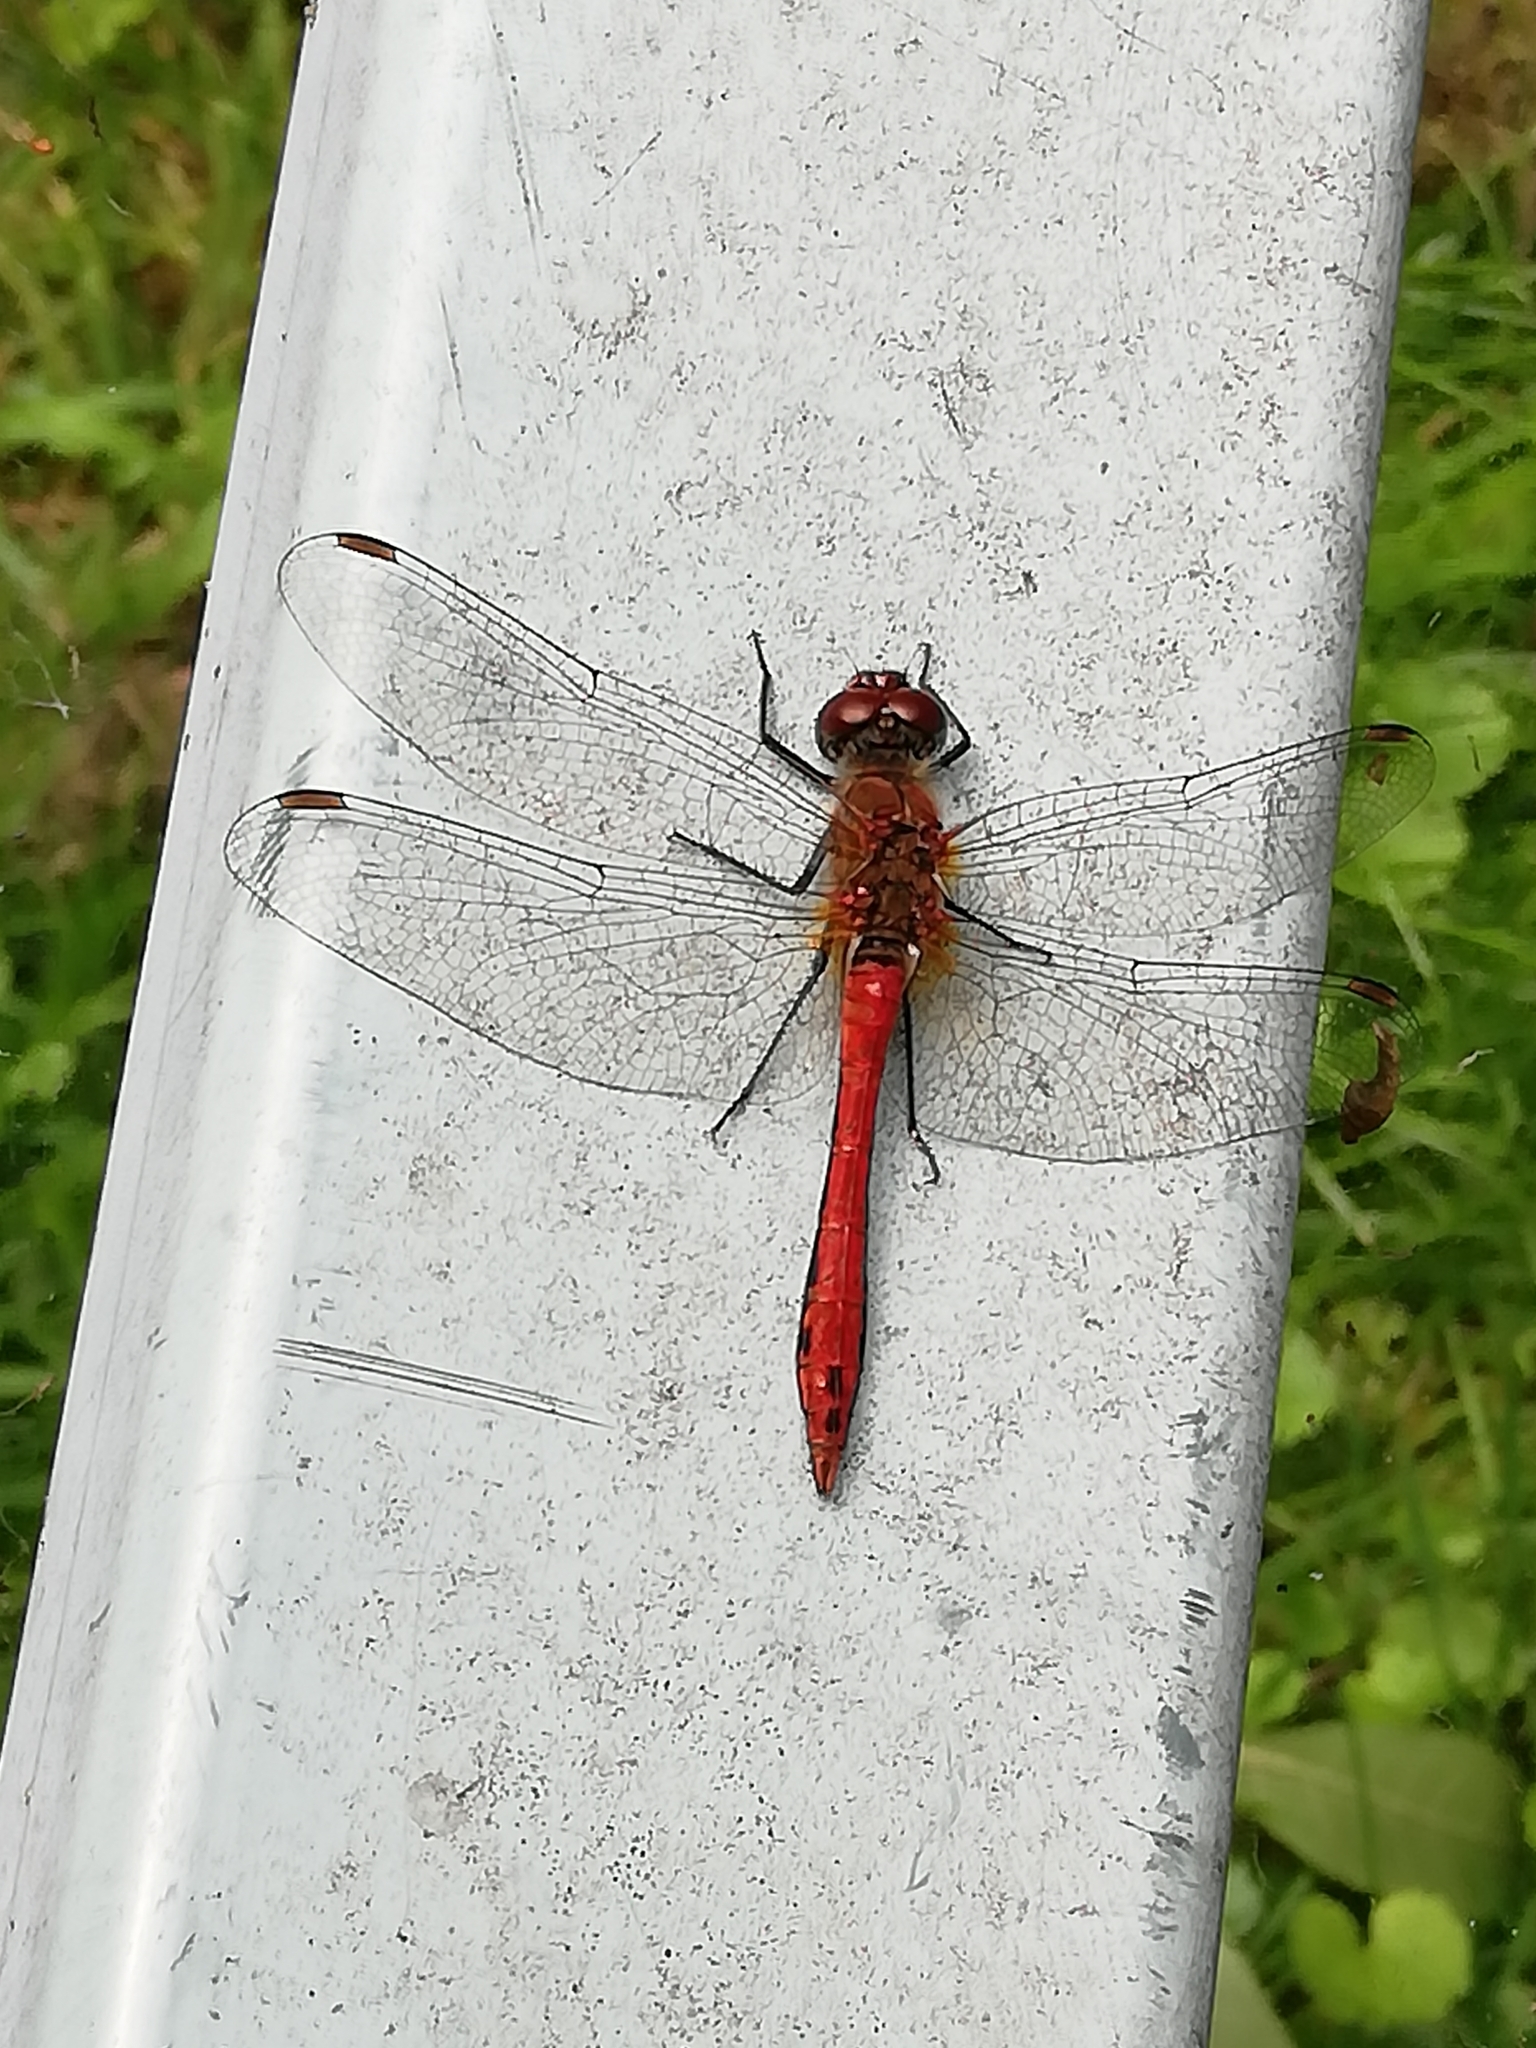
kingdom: Animalia
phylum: Arthropoda
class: Insecta
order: Odonata
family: Libellulidae
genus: Sympetrum
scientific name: Sympetrum sanguineum
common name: Ruddy darter
